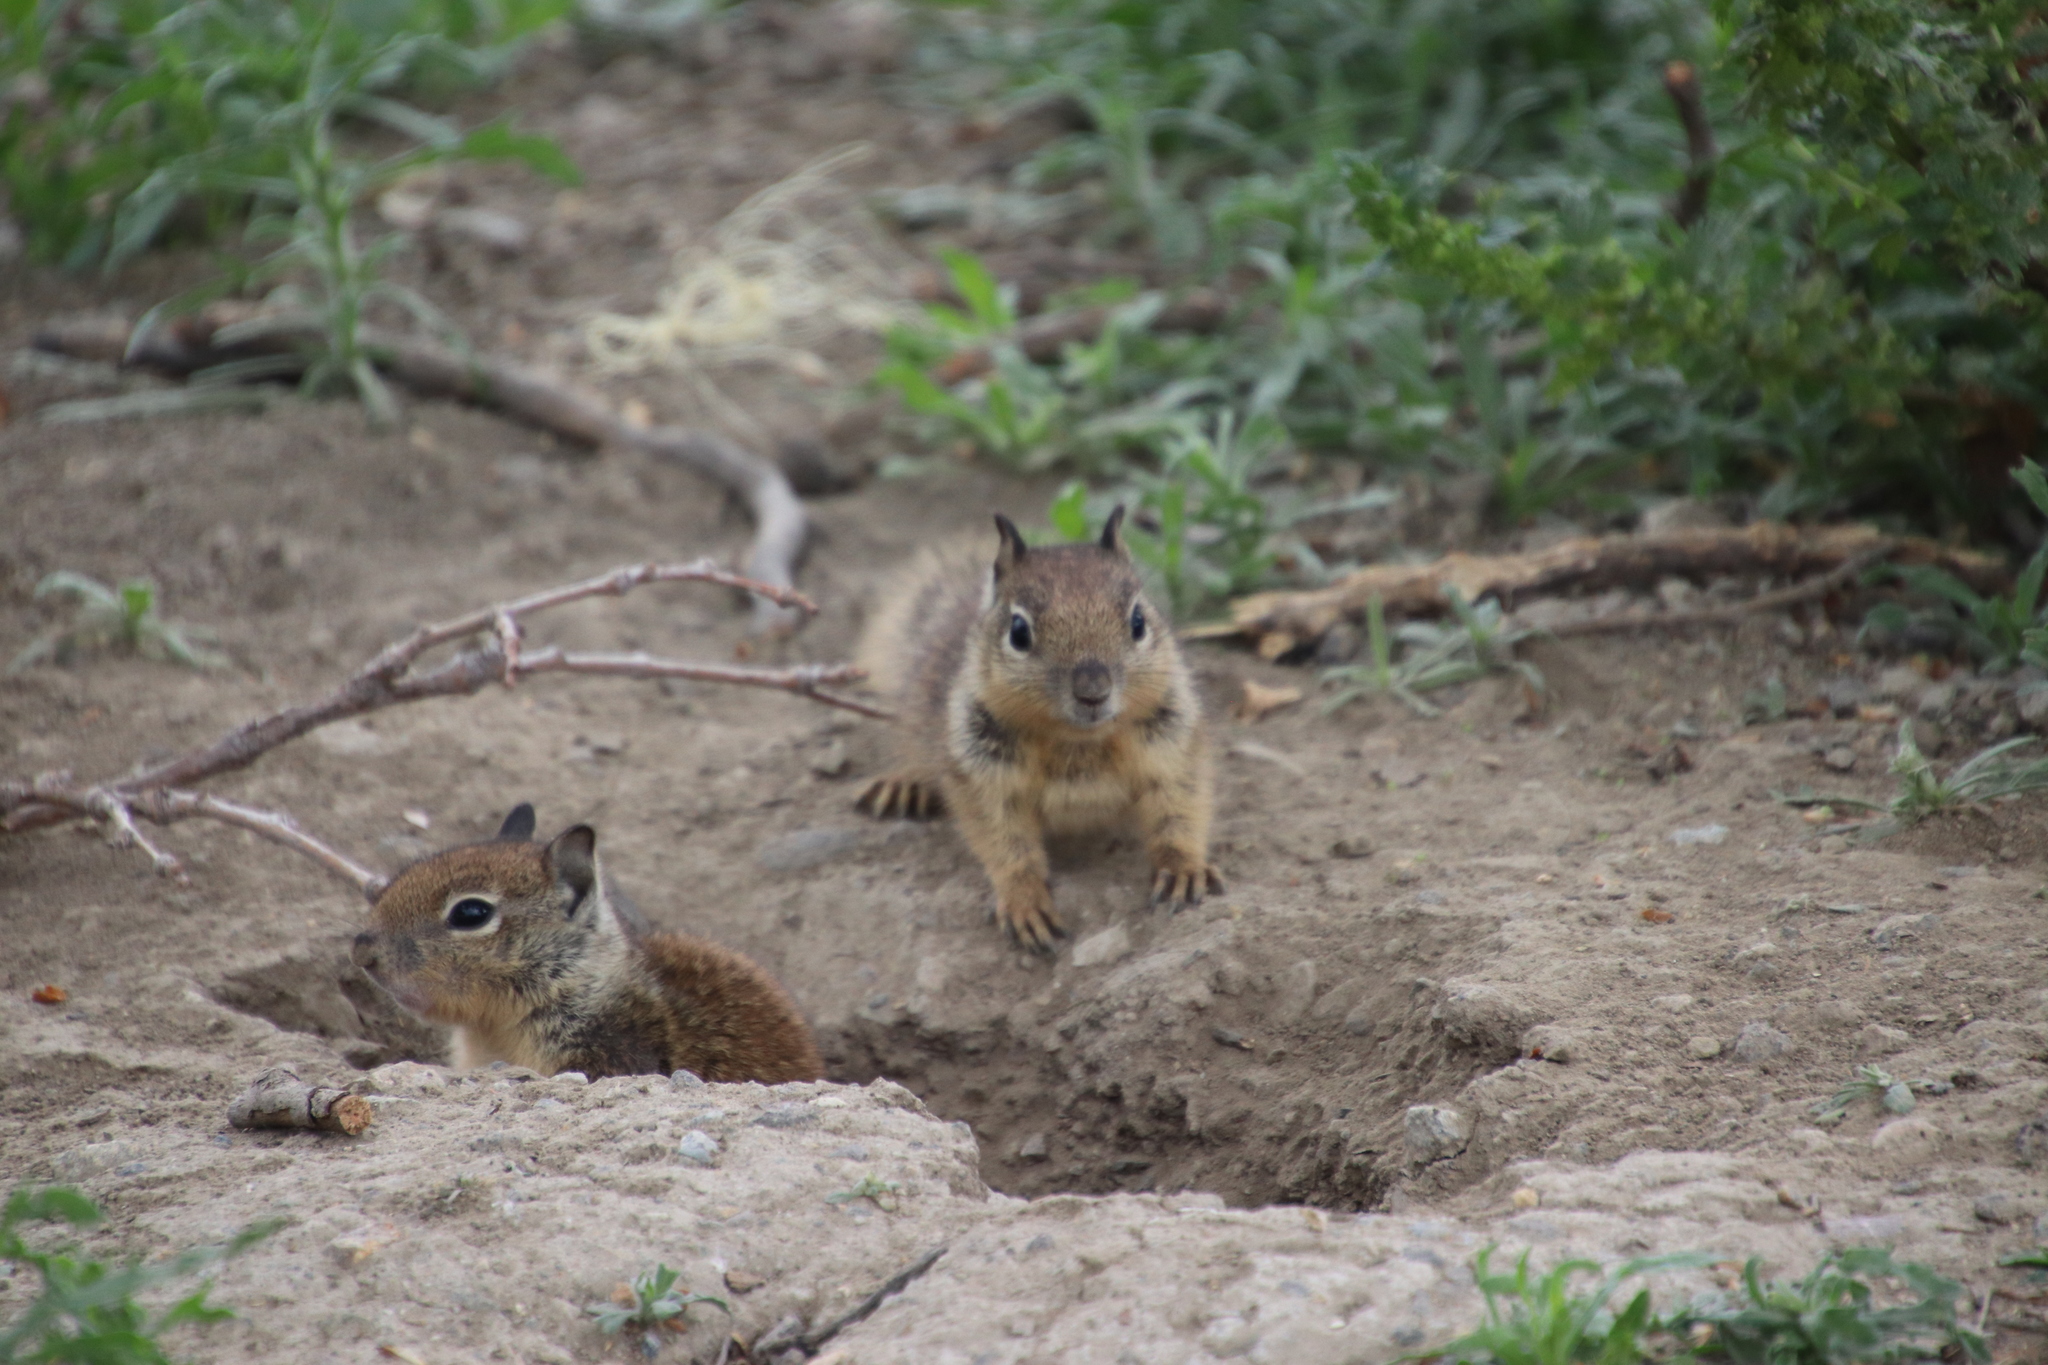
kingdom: Animalia
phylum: Chordata
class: Mammalia
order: Rodentia
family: Sciuridae
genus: Otospermophilus
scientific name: Otospermophilus beecheyi
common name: California ground squirrel
